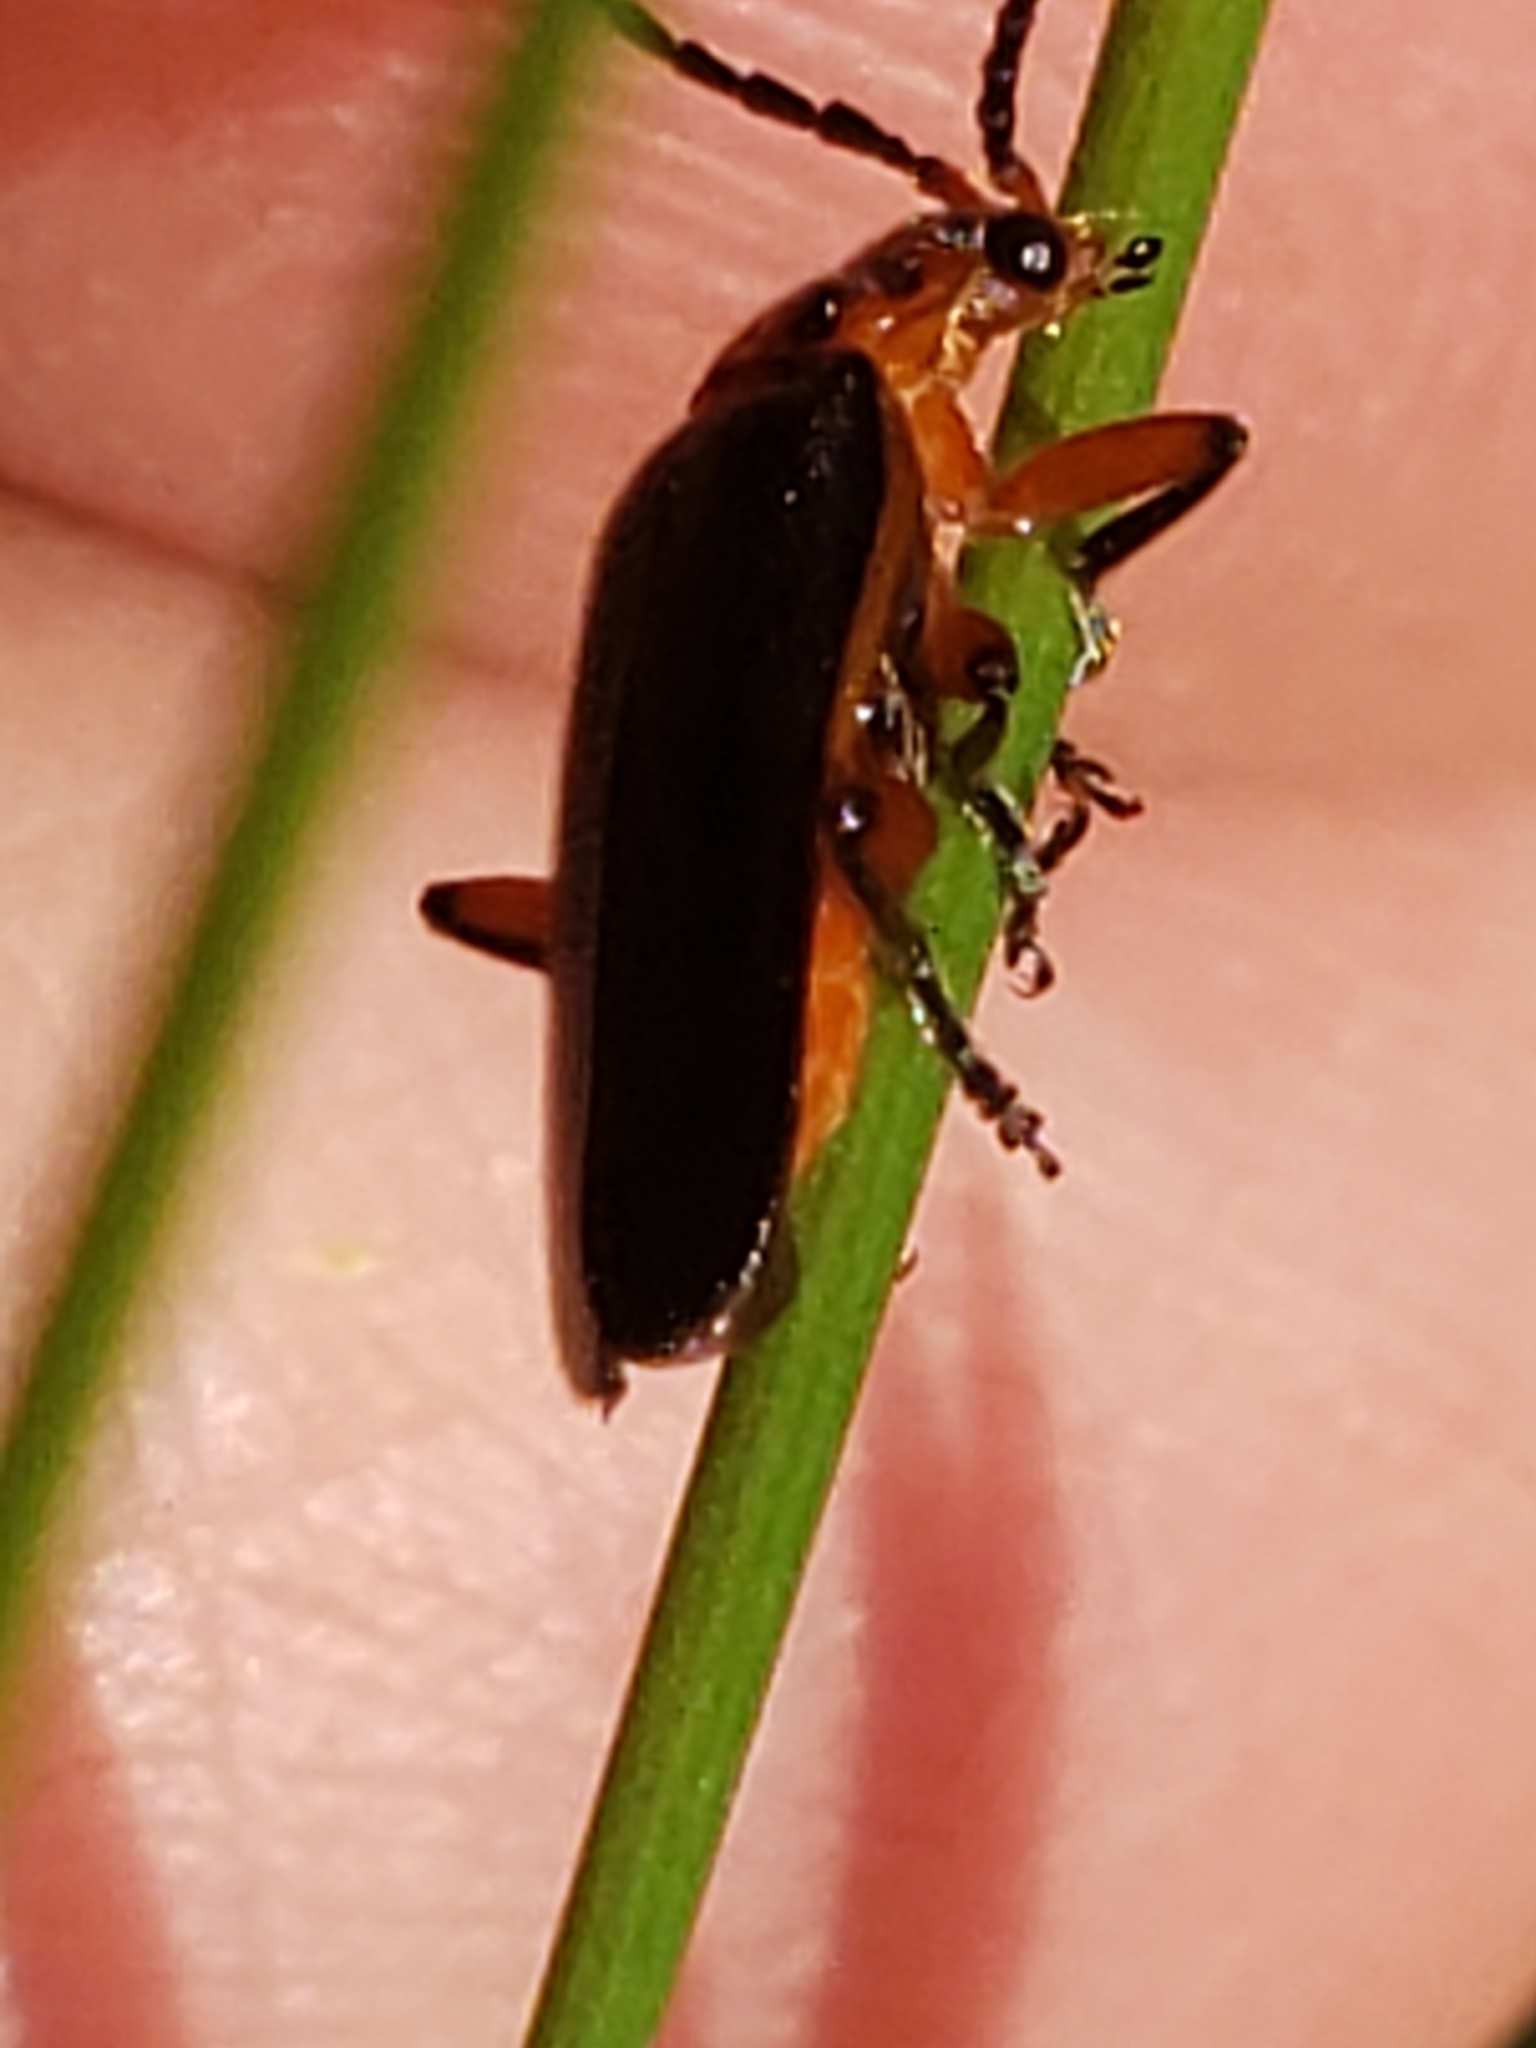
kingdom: Animalia
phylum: Arthropoda
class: Insecta
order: Coleoptera
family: Cantharidae
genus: Atalantycha
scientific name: Atalantycha bilineata
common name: Two-lined leatherwing
